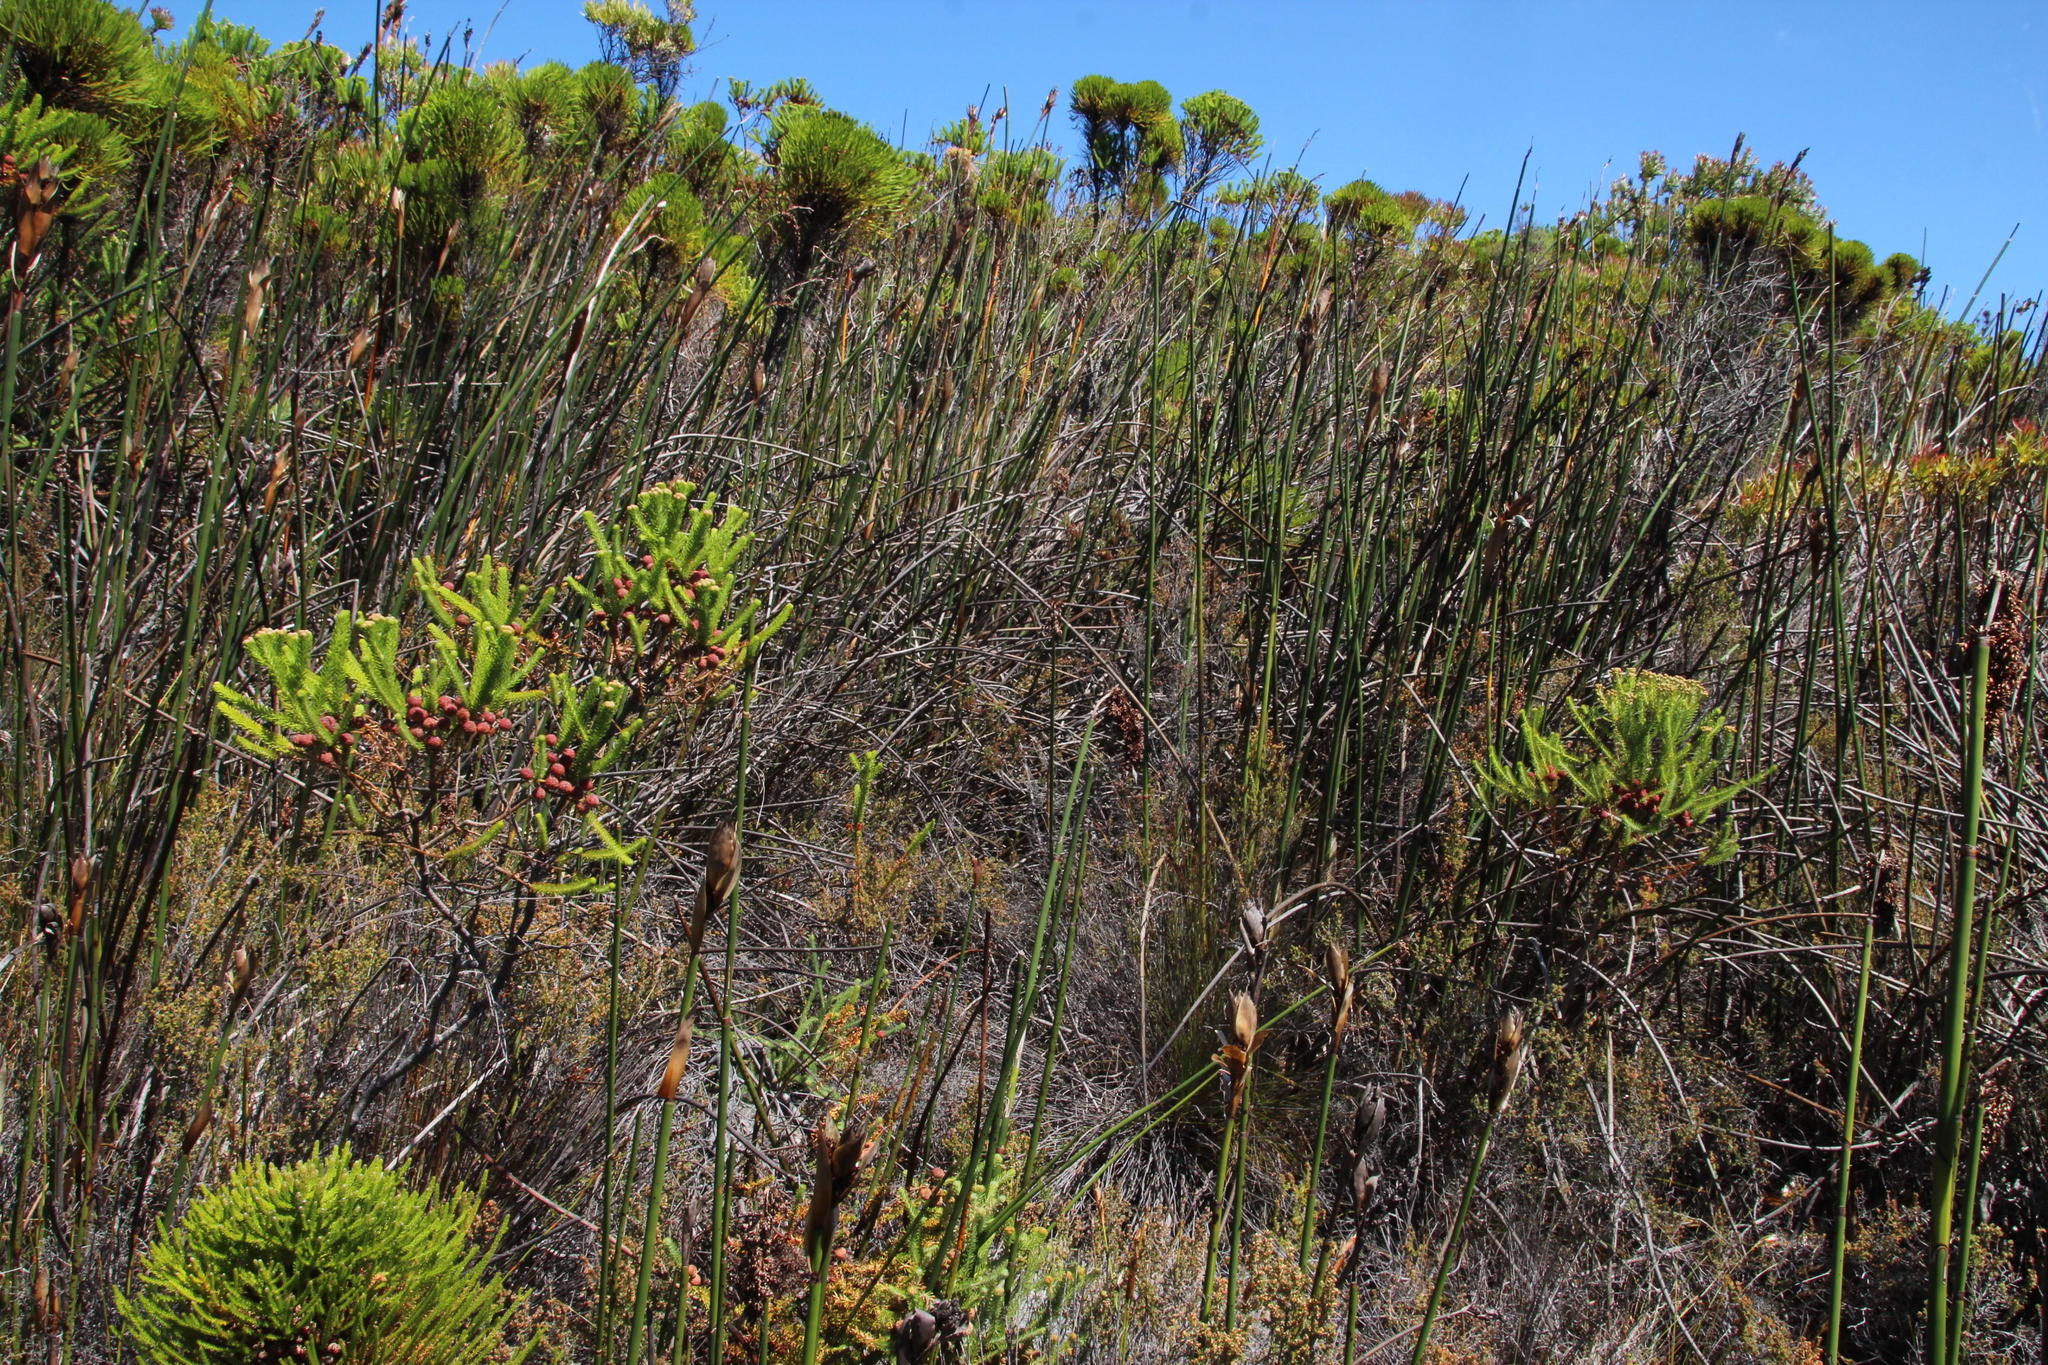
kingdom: Plantae
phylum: Tracheophyta
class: Liliopsida
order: Poales
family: Restionaceae
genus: Elegia
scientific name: Elegia mucronata
